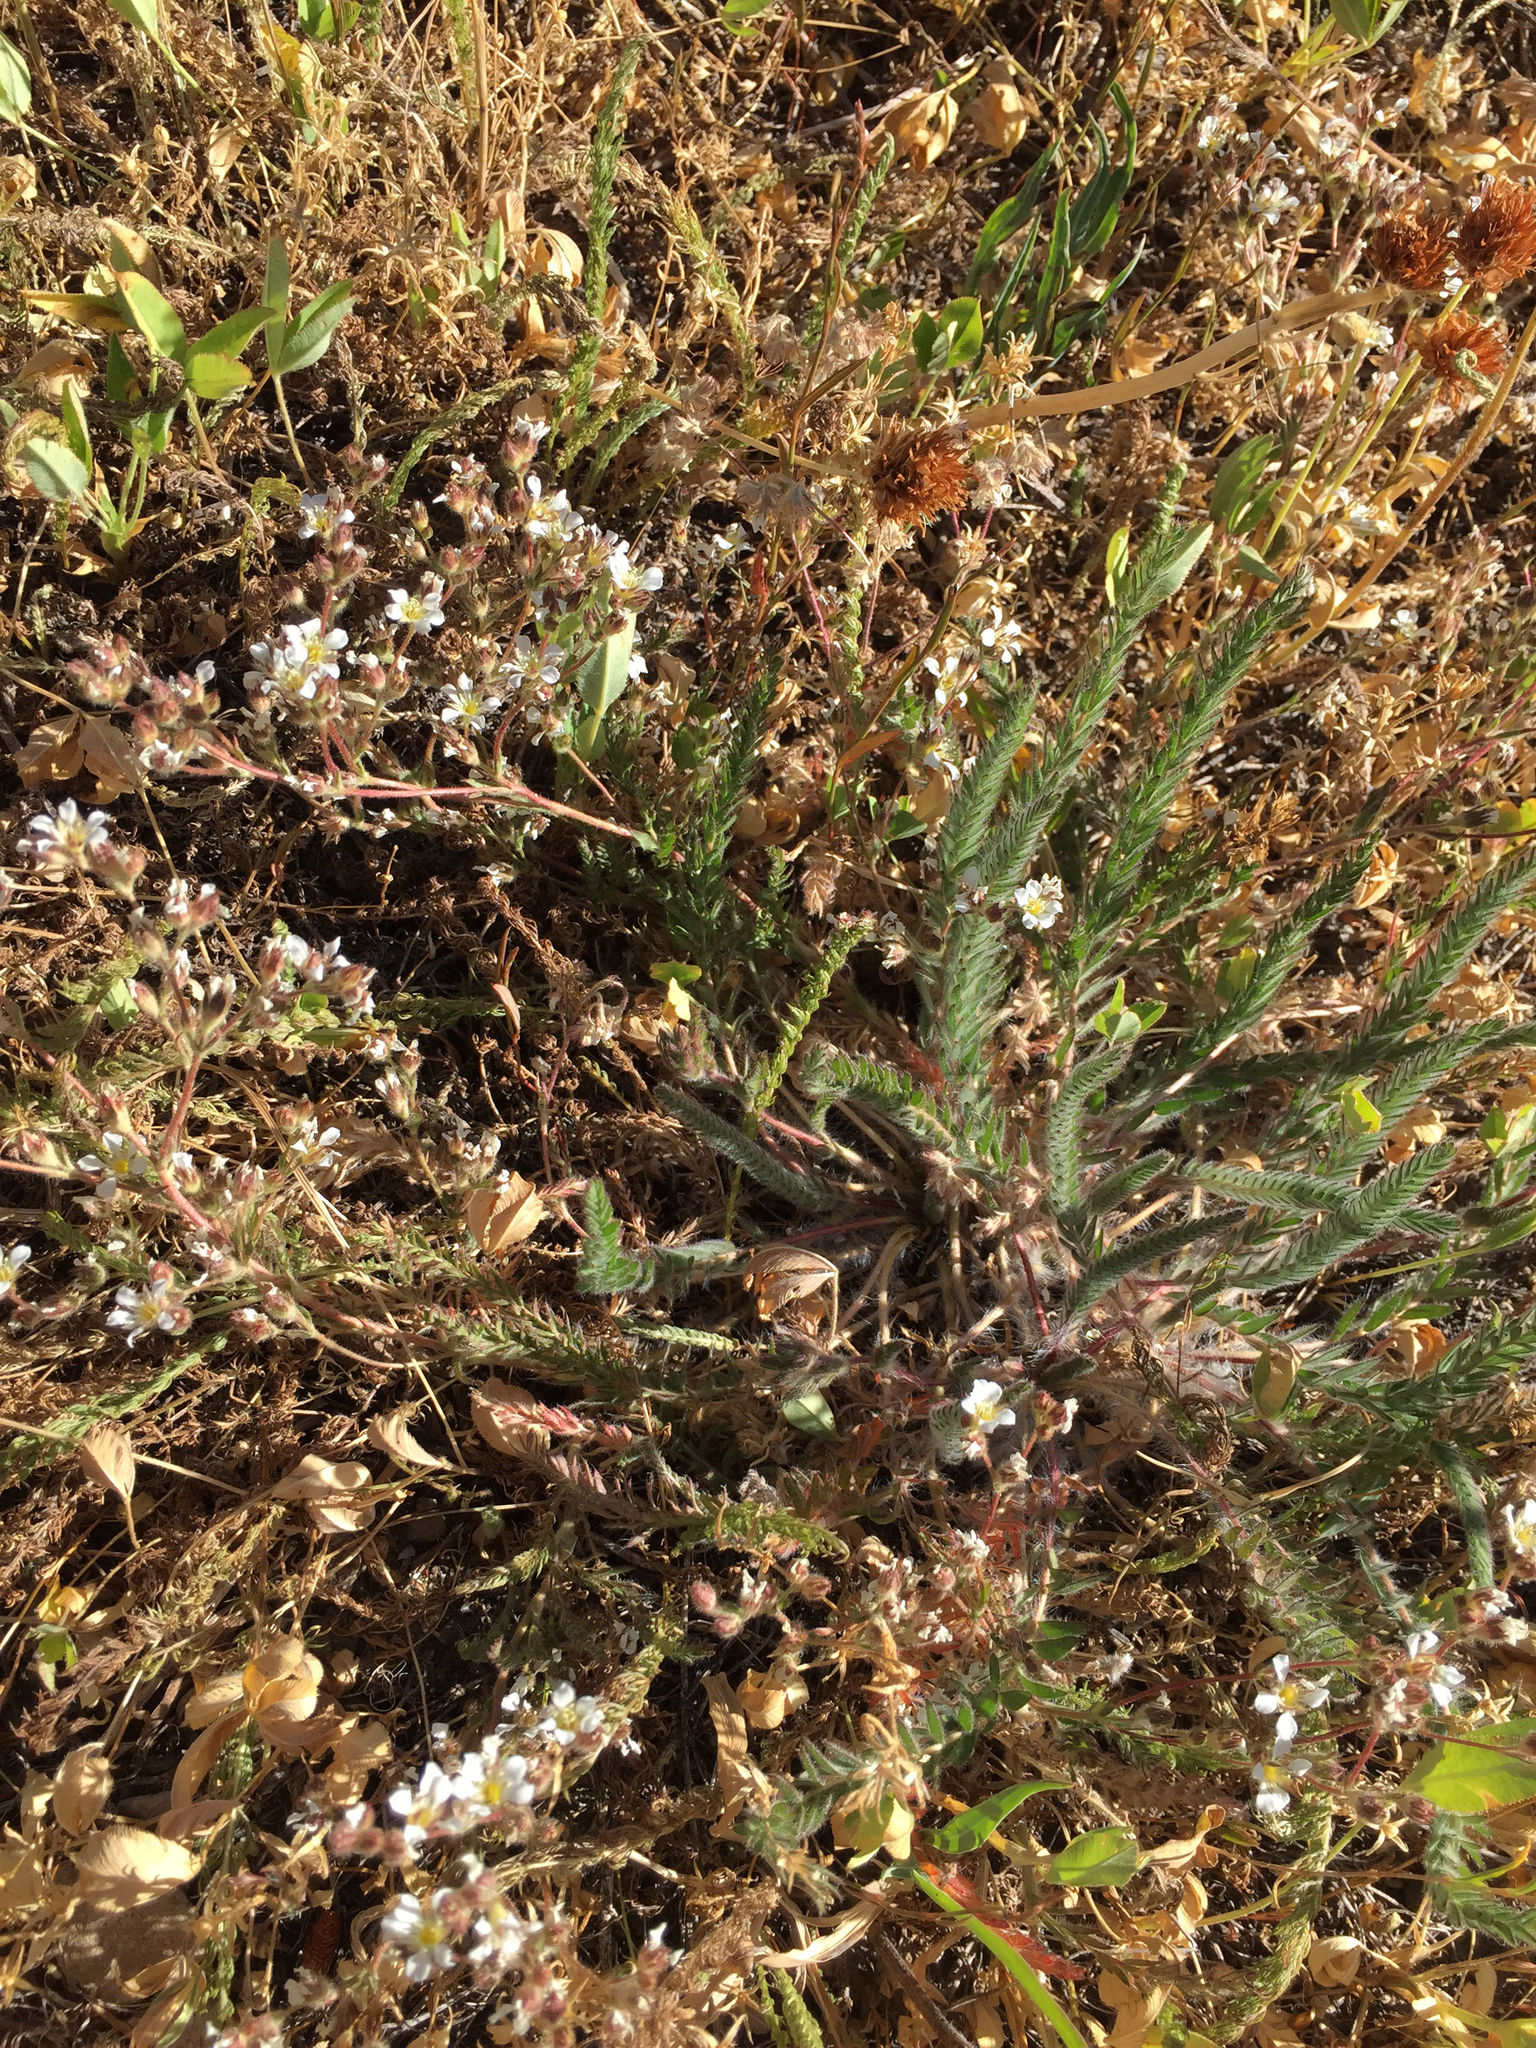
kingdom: Plantae
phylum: Tracheophyta
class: Magnoliopsida
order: Rosales
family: Rosaceae
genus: Potentilla
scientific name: Potentilla sericoleuca
